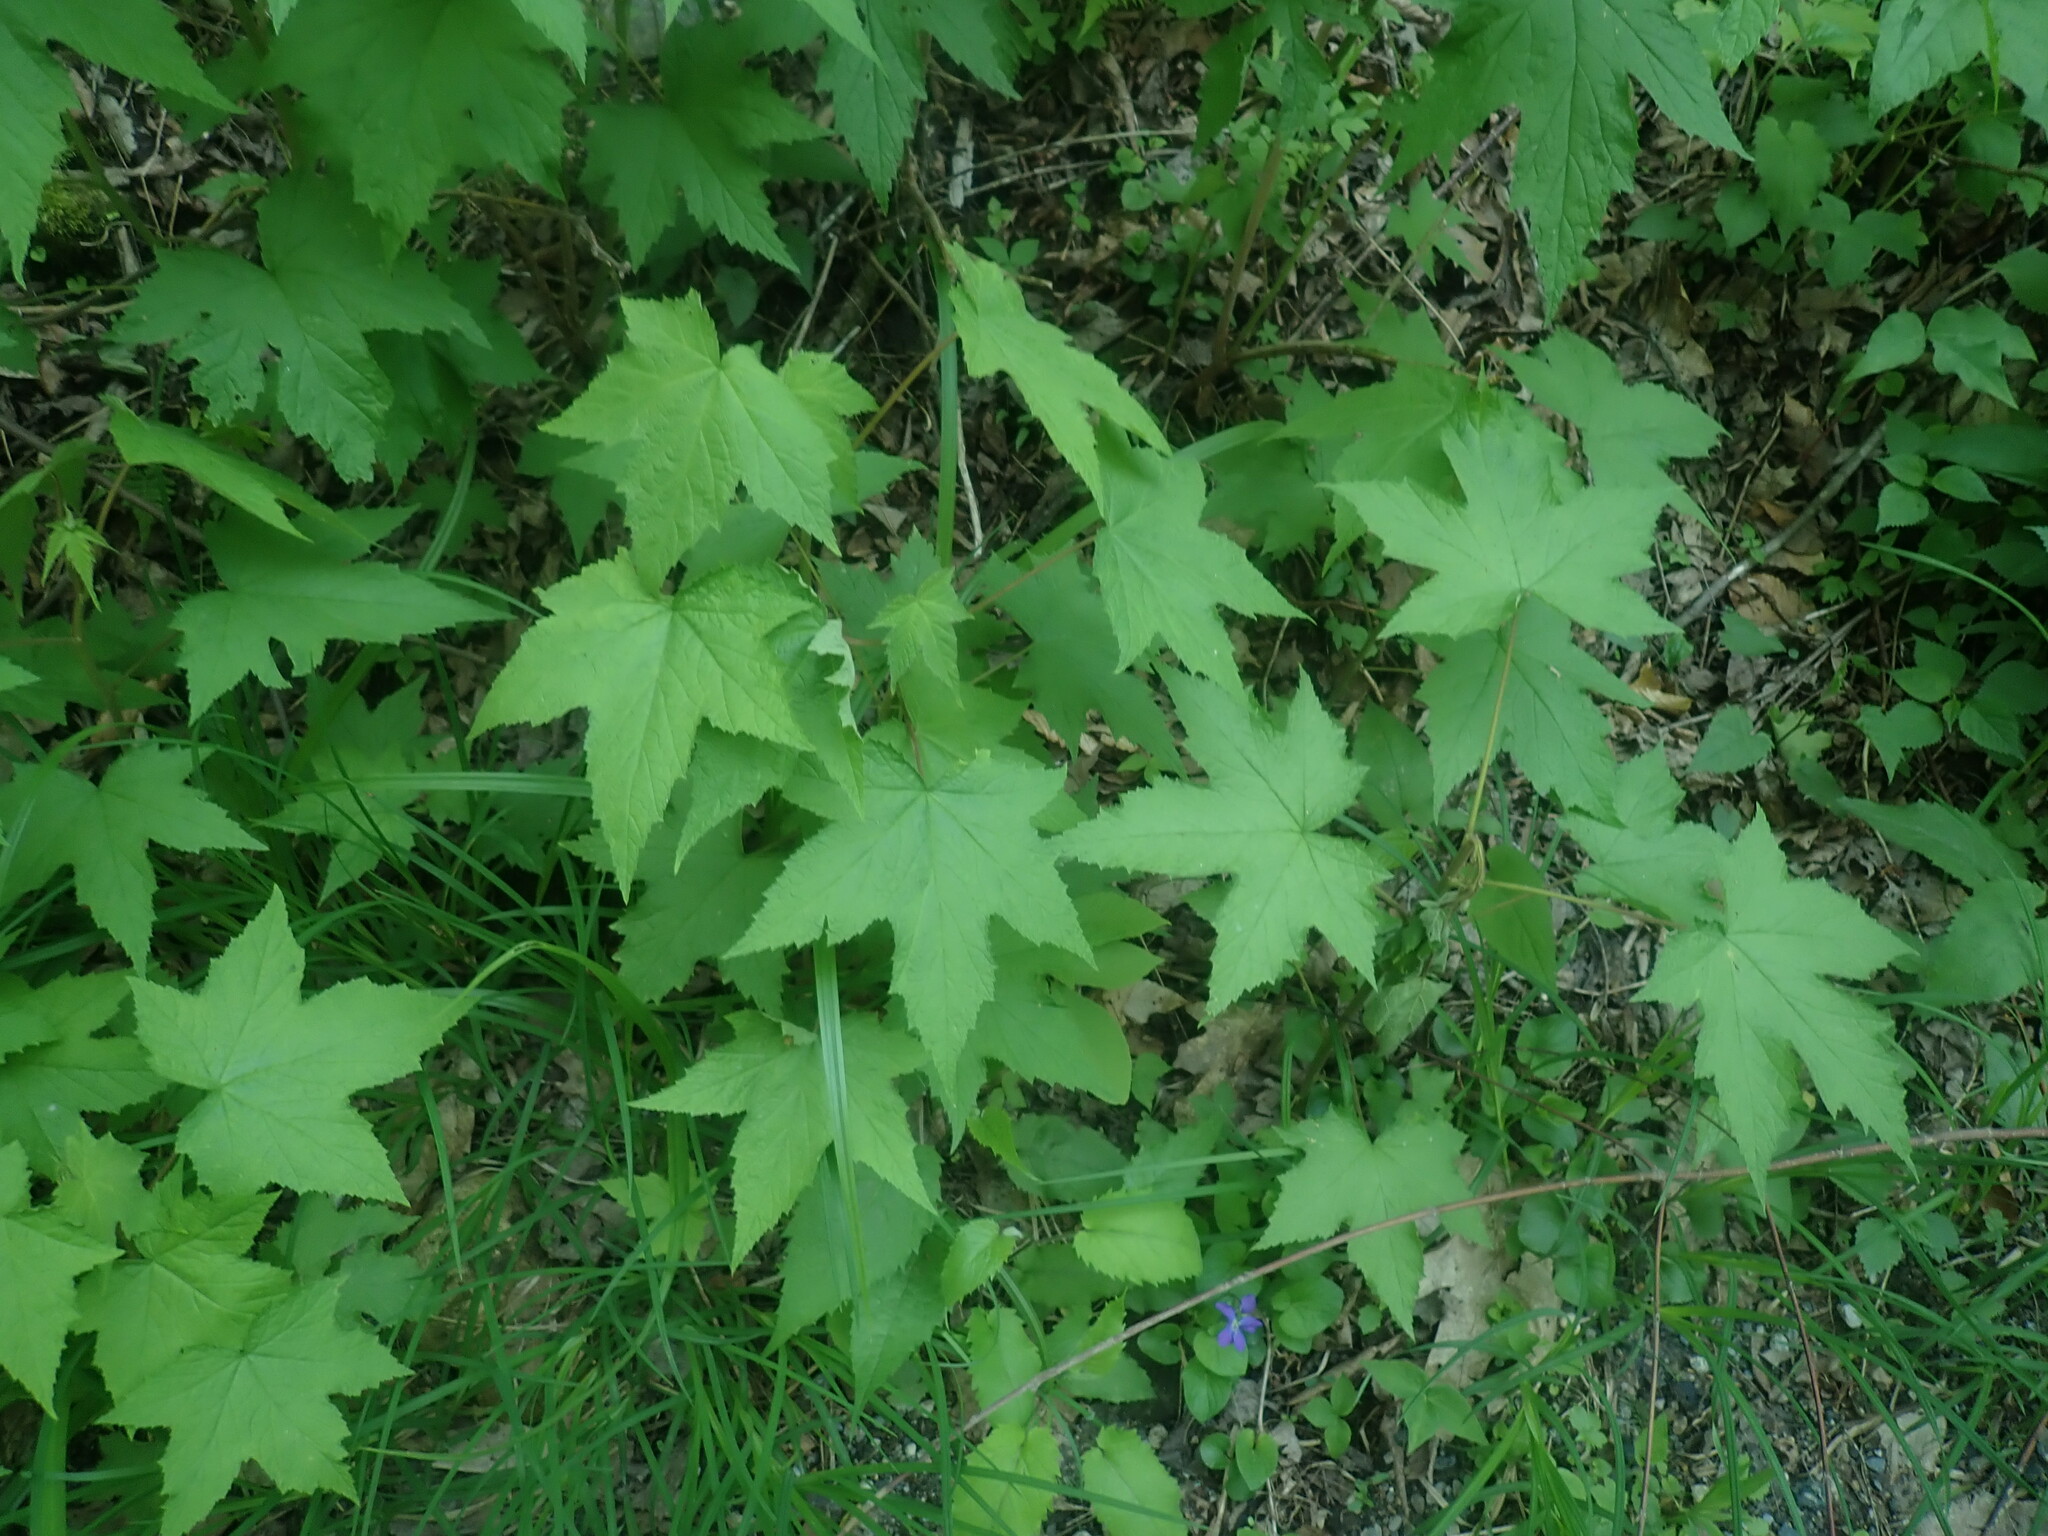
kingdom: Plantae
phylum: Tracheophyta
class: Magnoliopsida
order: Rosales
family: Rosaceae
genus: Rubus
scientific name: Rubus odoratus
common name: Purple-flowered raspberry
